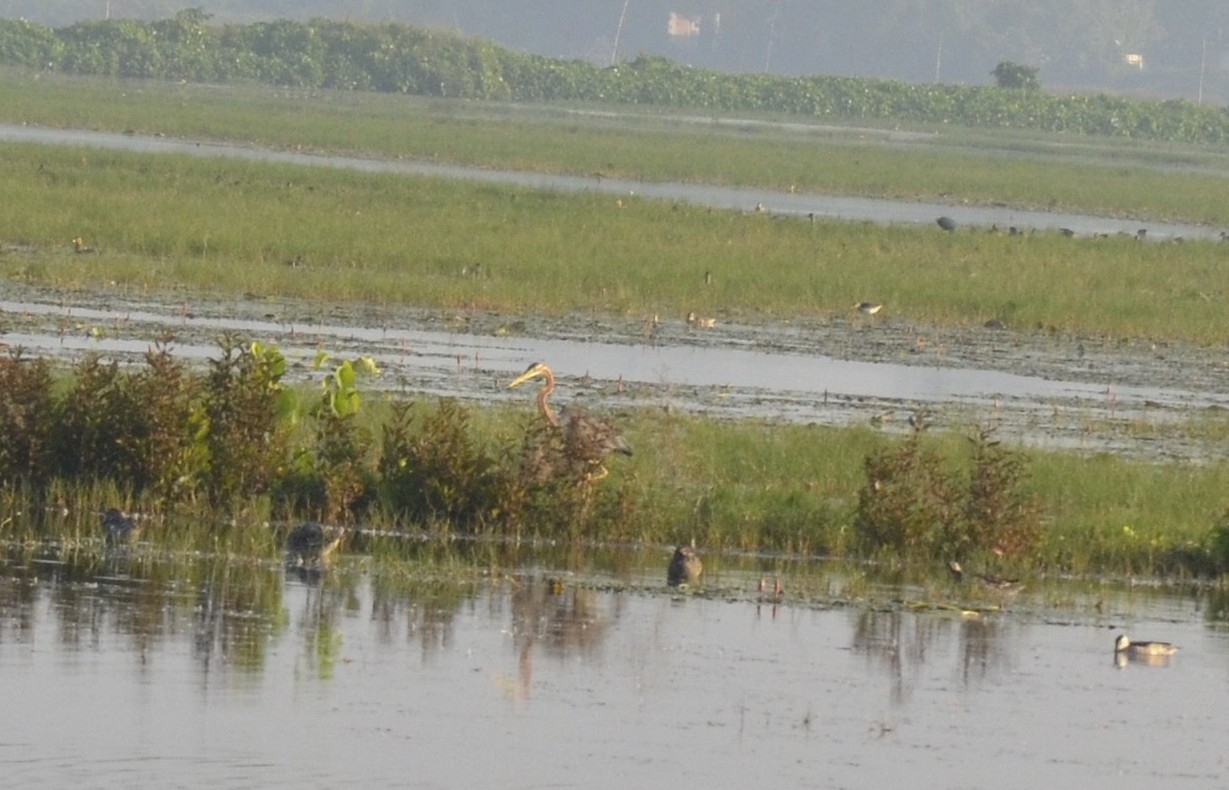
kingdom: Animalia
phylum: Chordata
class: Aves
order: Pelecaniformes
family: Ardeidae
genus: Ardea
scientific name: Ardea purpurea
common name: Purple heron
